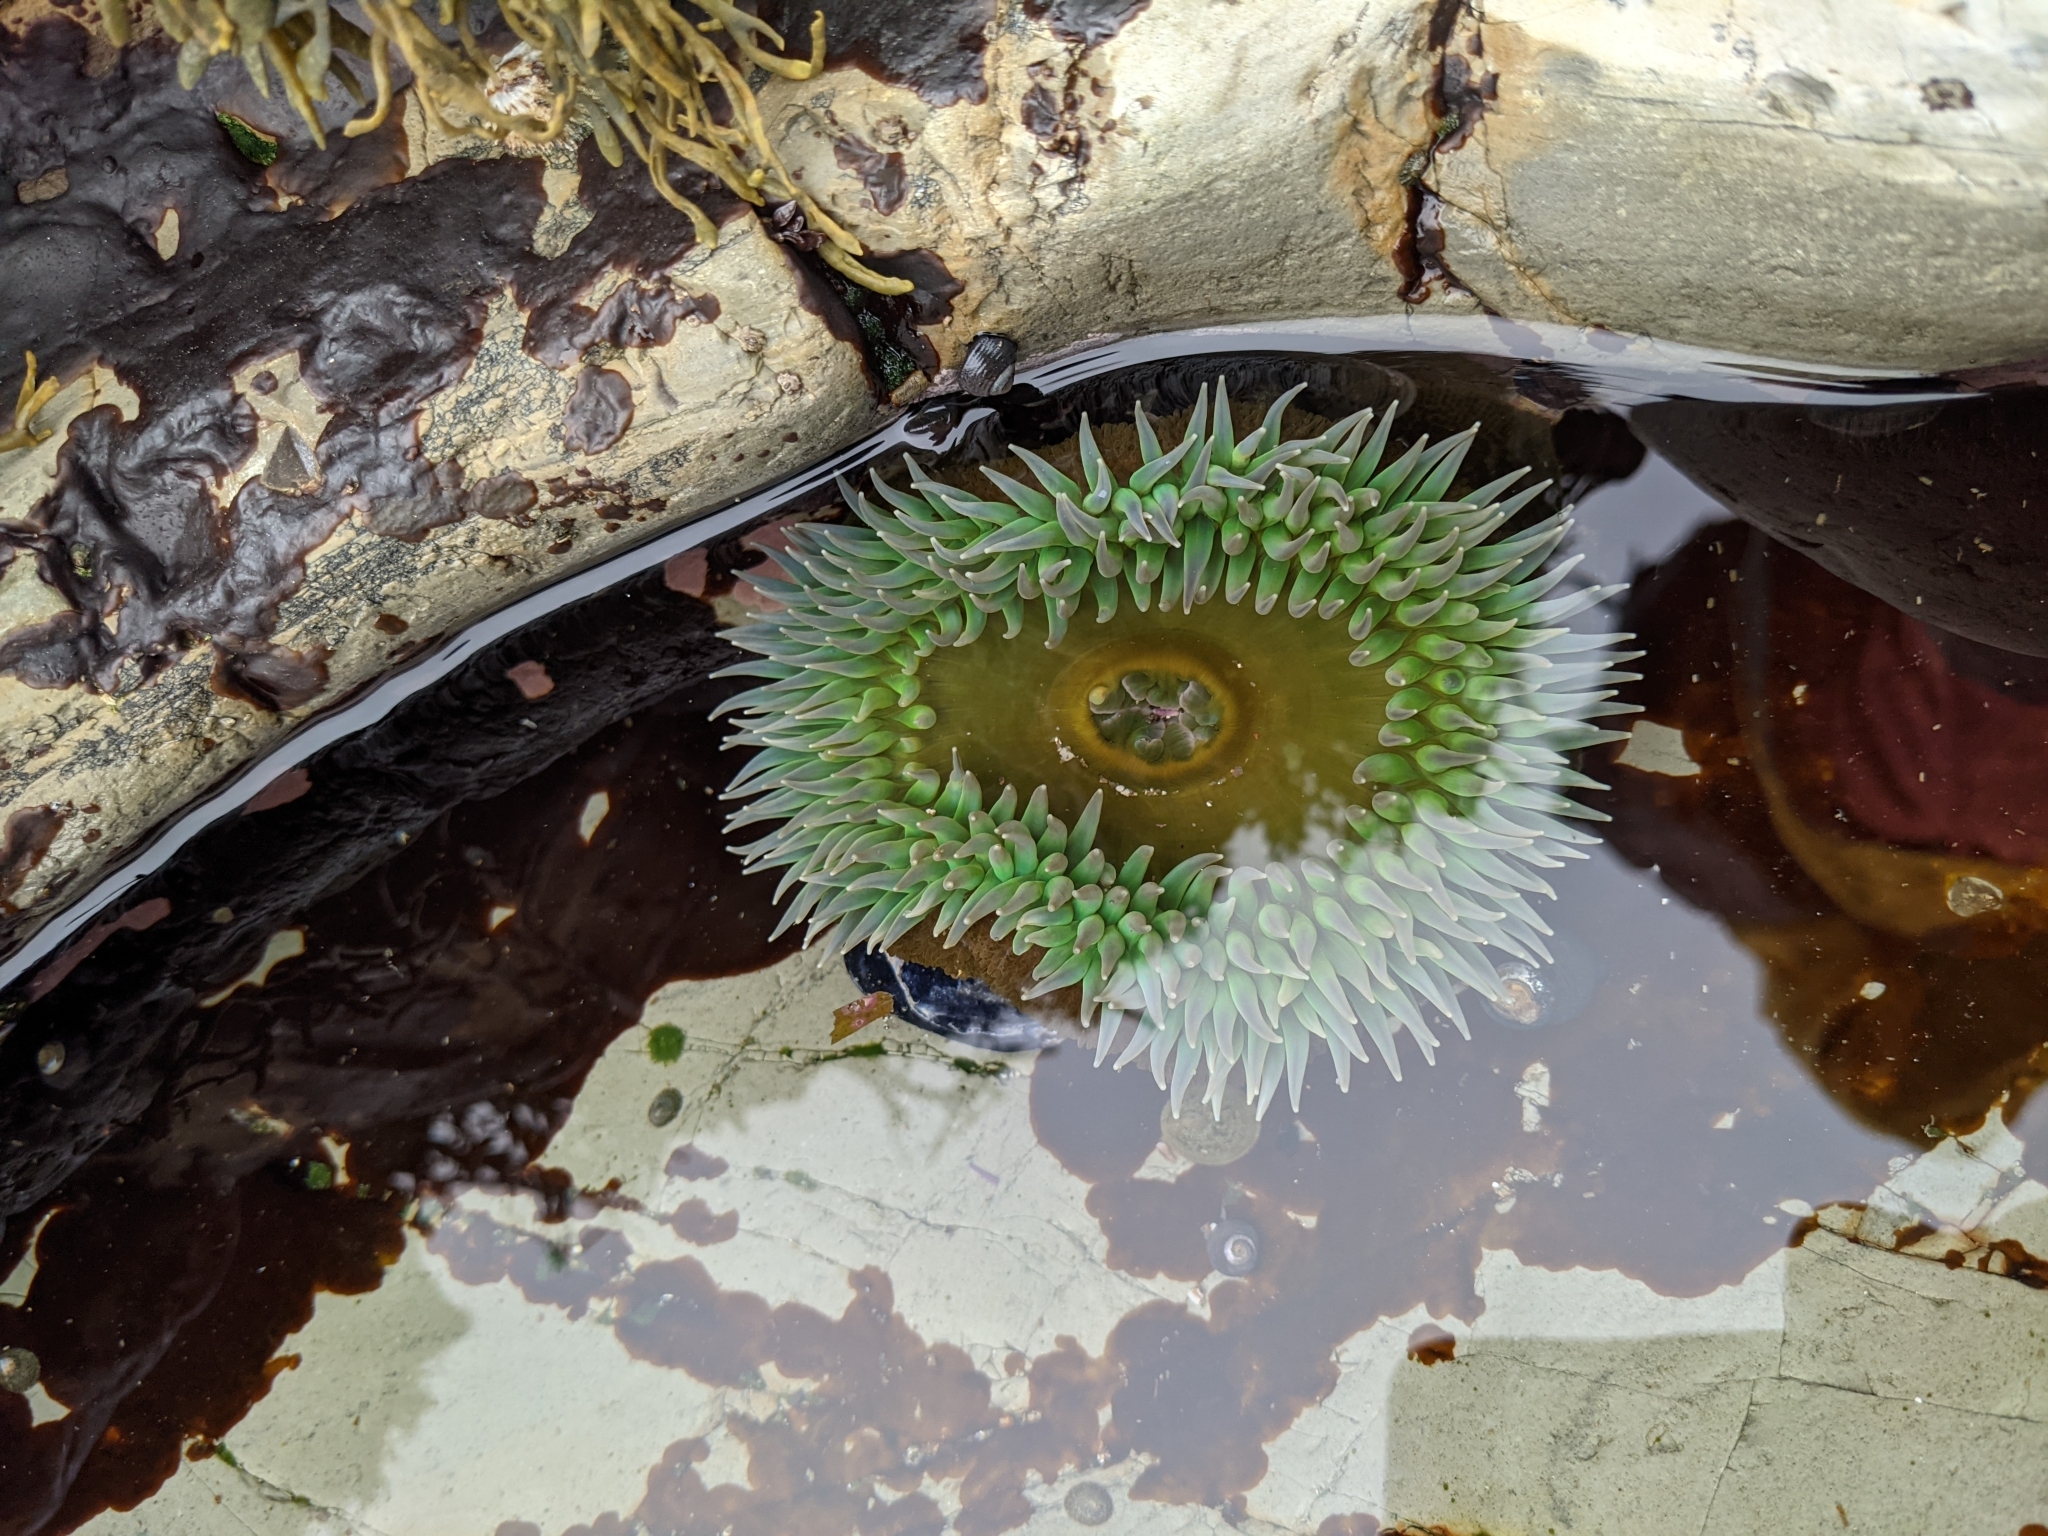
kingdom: Animalia
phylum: Cnidaria
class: Anthozoa
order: Actiniaria
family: Actiniidae
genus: Anthopleura
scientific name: Anthopleura xanthogrammica
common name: Giant green anemone
